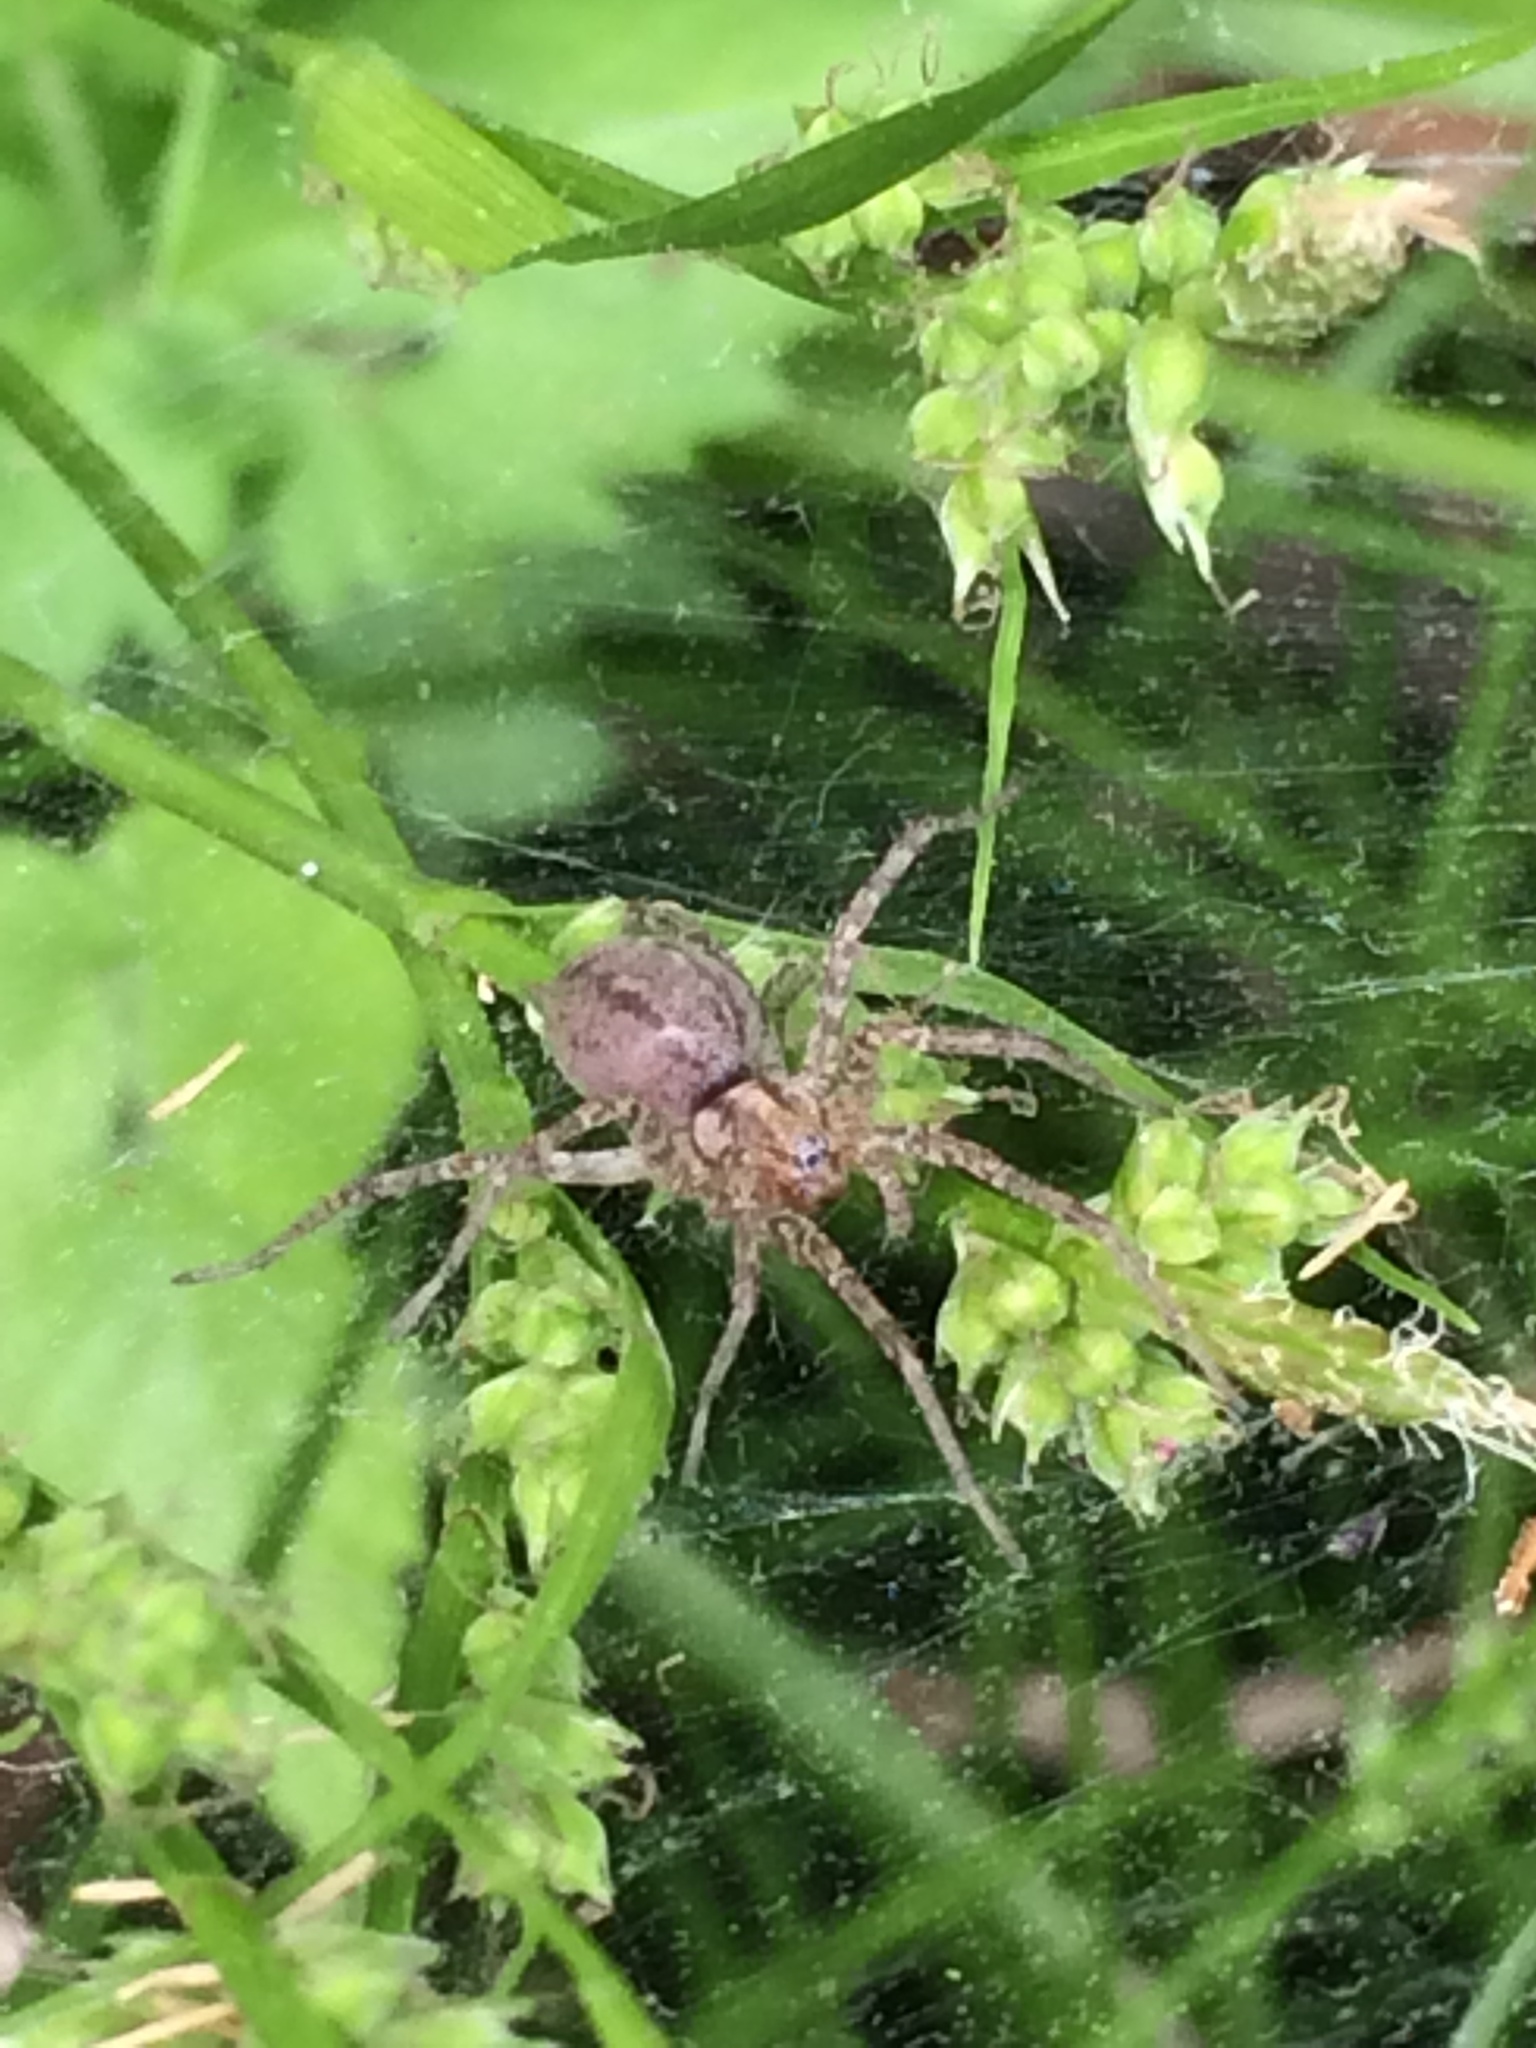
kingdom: Plantae
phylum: Tracheophyta
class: Liliopsida
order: Poales
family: Cyperaceae
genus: Carex
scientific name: Carex communis
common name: Colonial oak sedge
